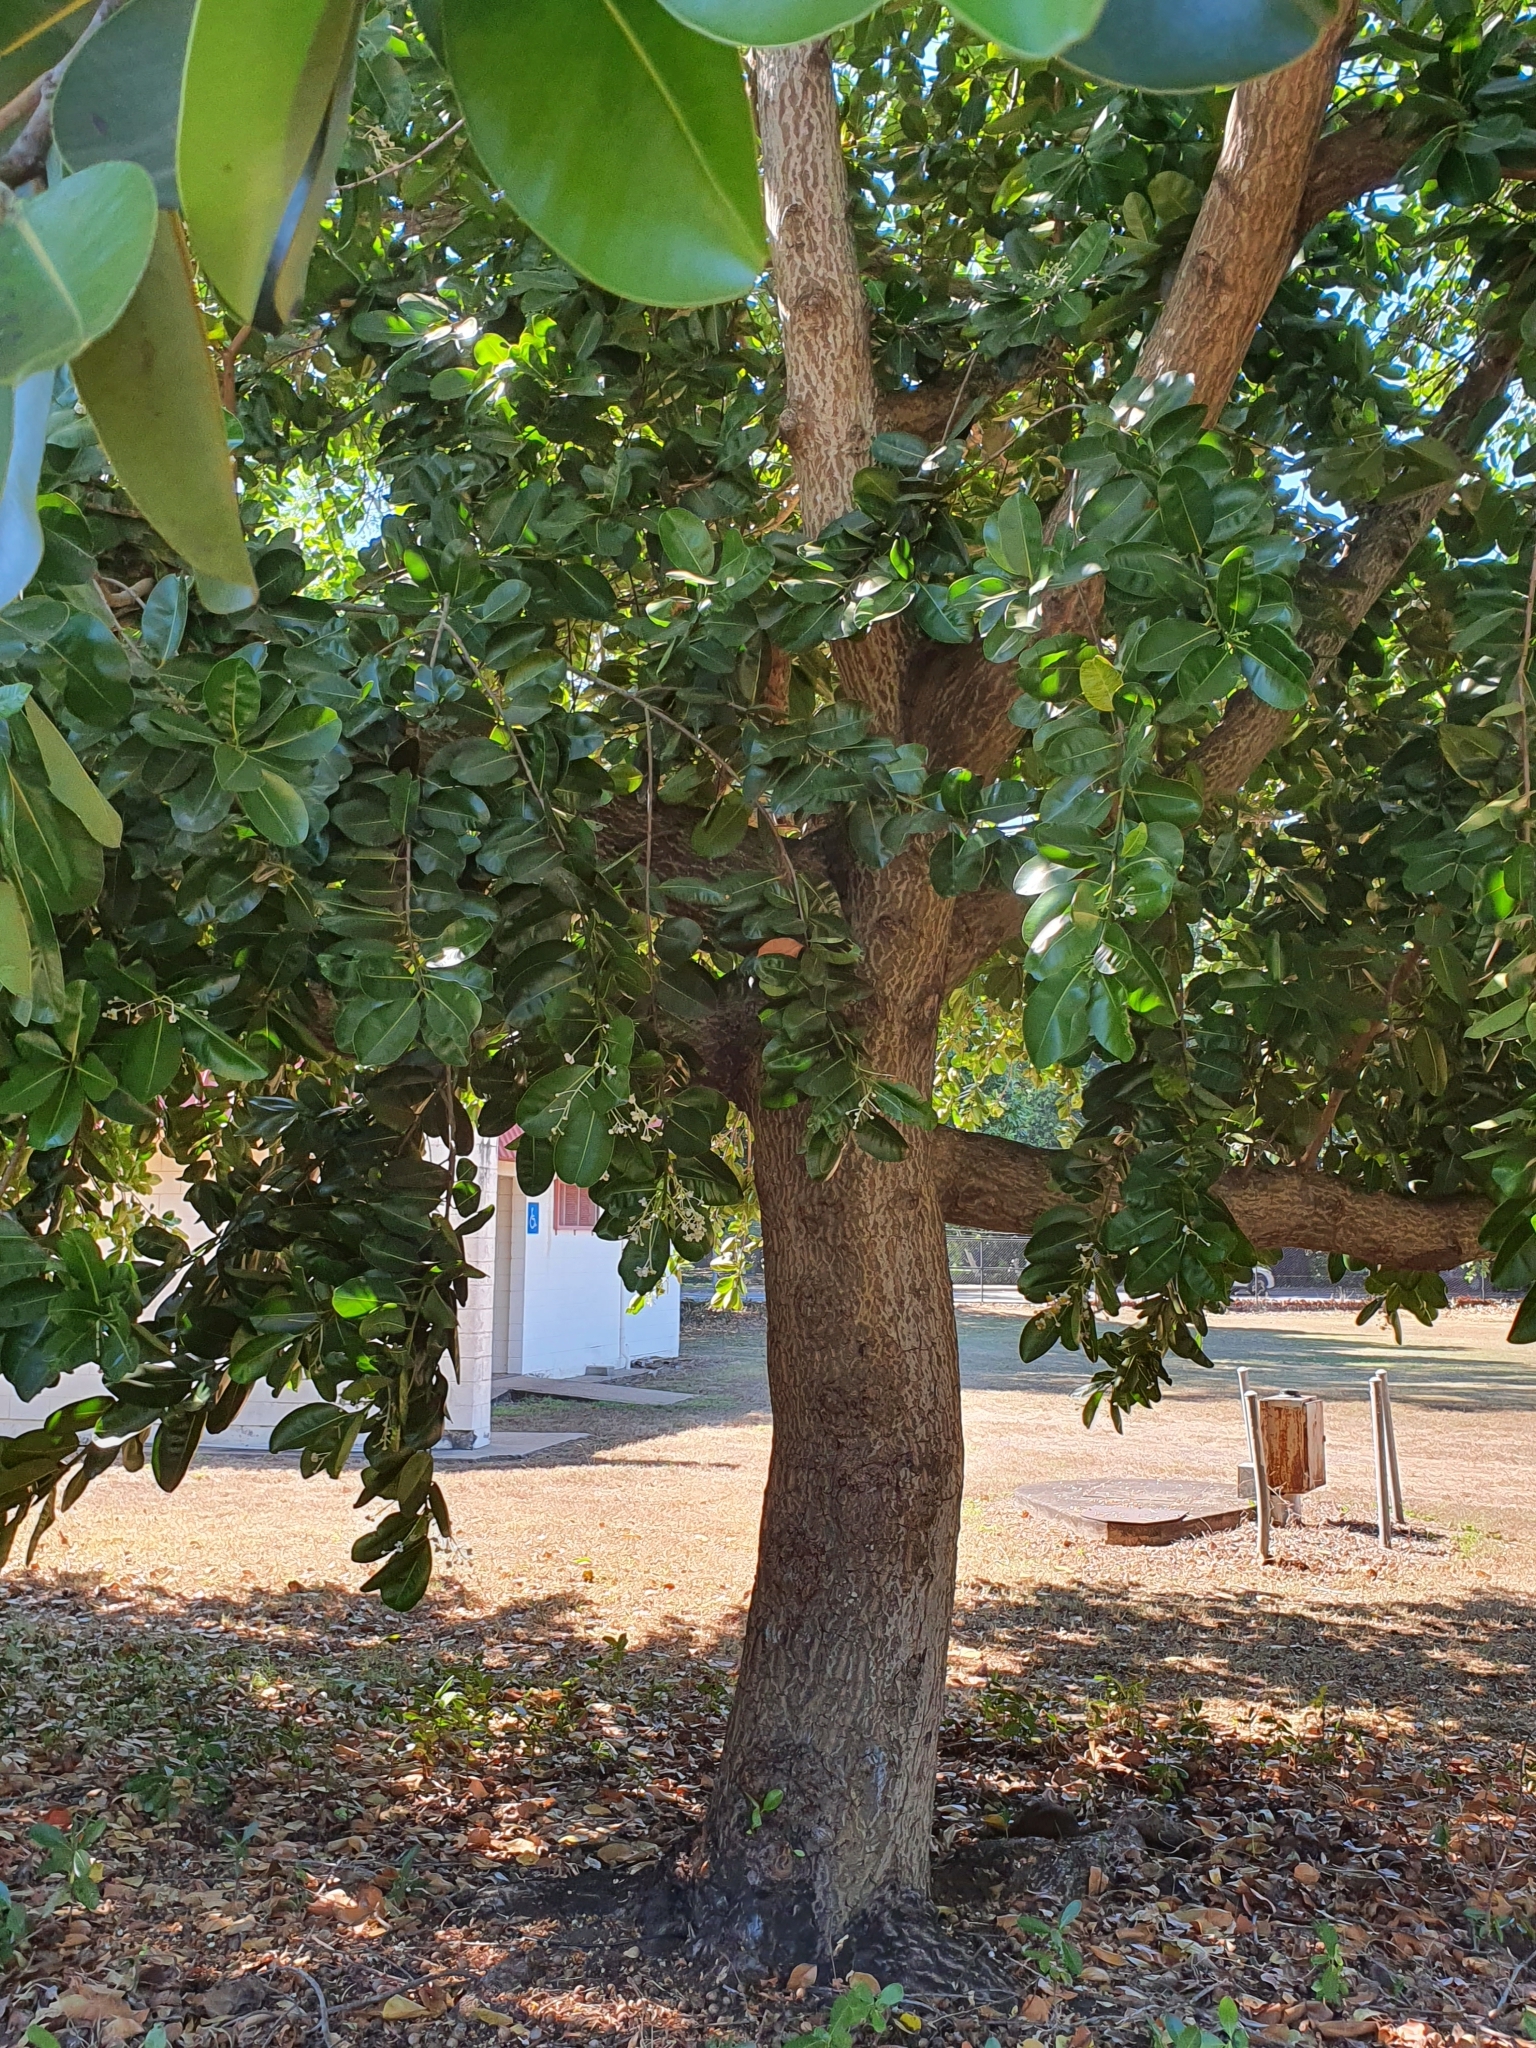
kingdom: Plantae
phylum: Tracheophyta
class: Magnoliopsida
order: Malpighiales
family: Calophyllaceae
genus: Calophyllum
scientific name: Calophyllum inophyllum
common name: Alexandrian laurel
